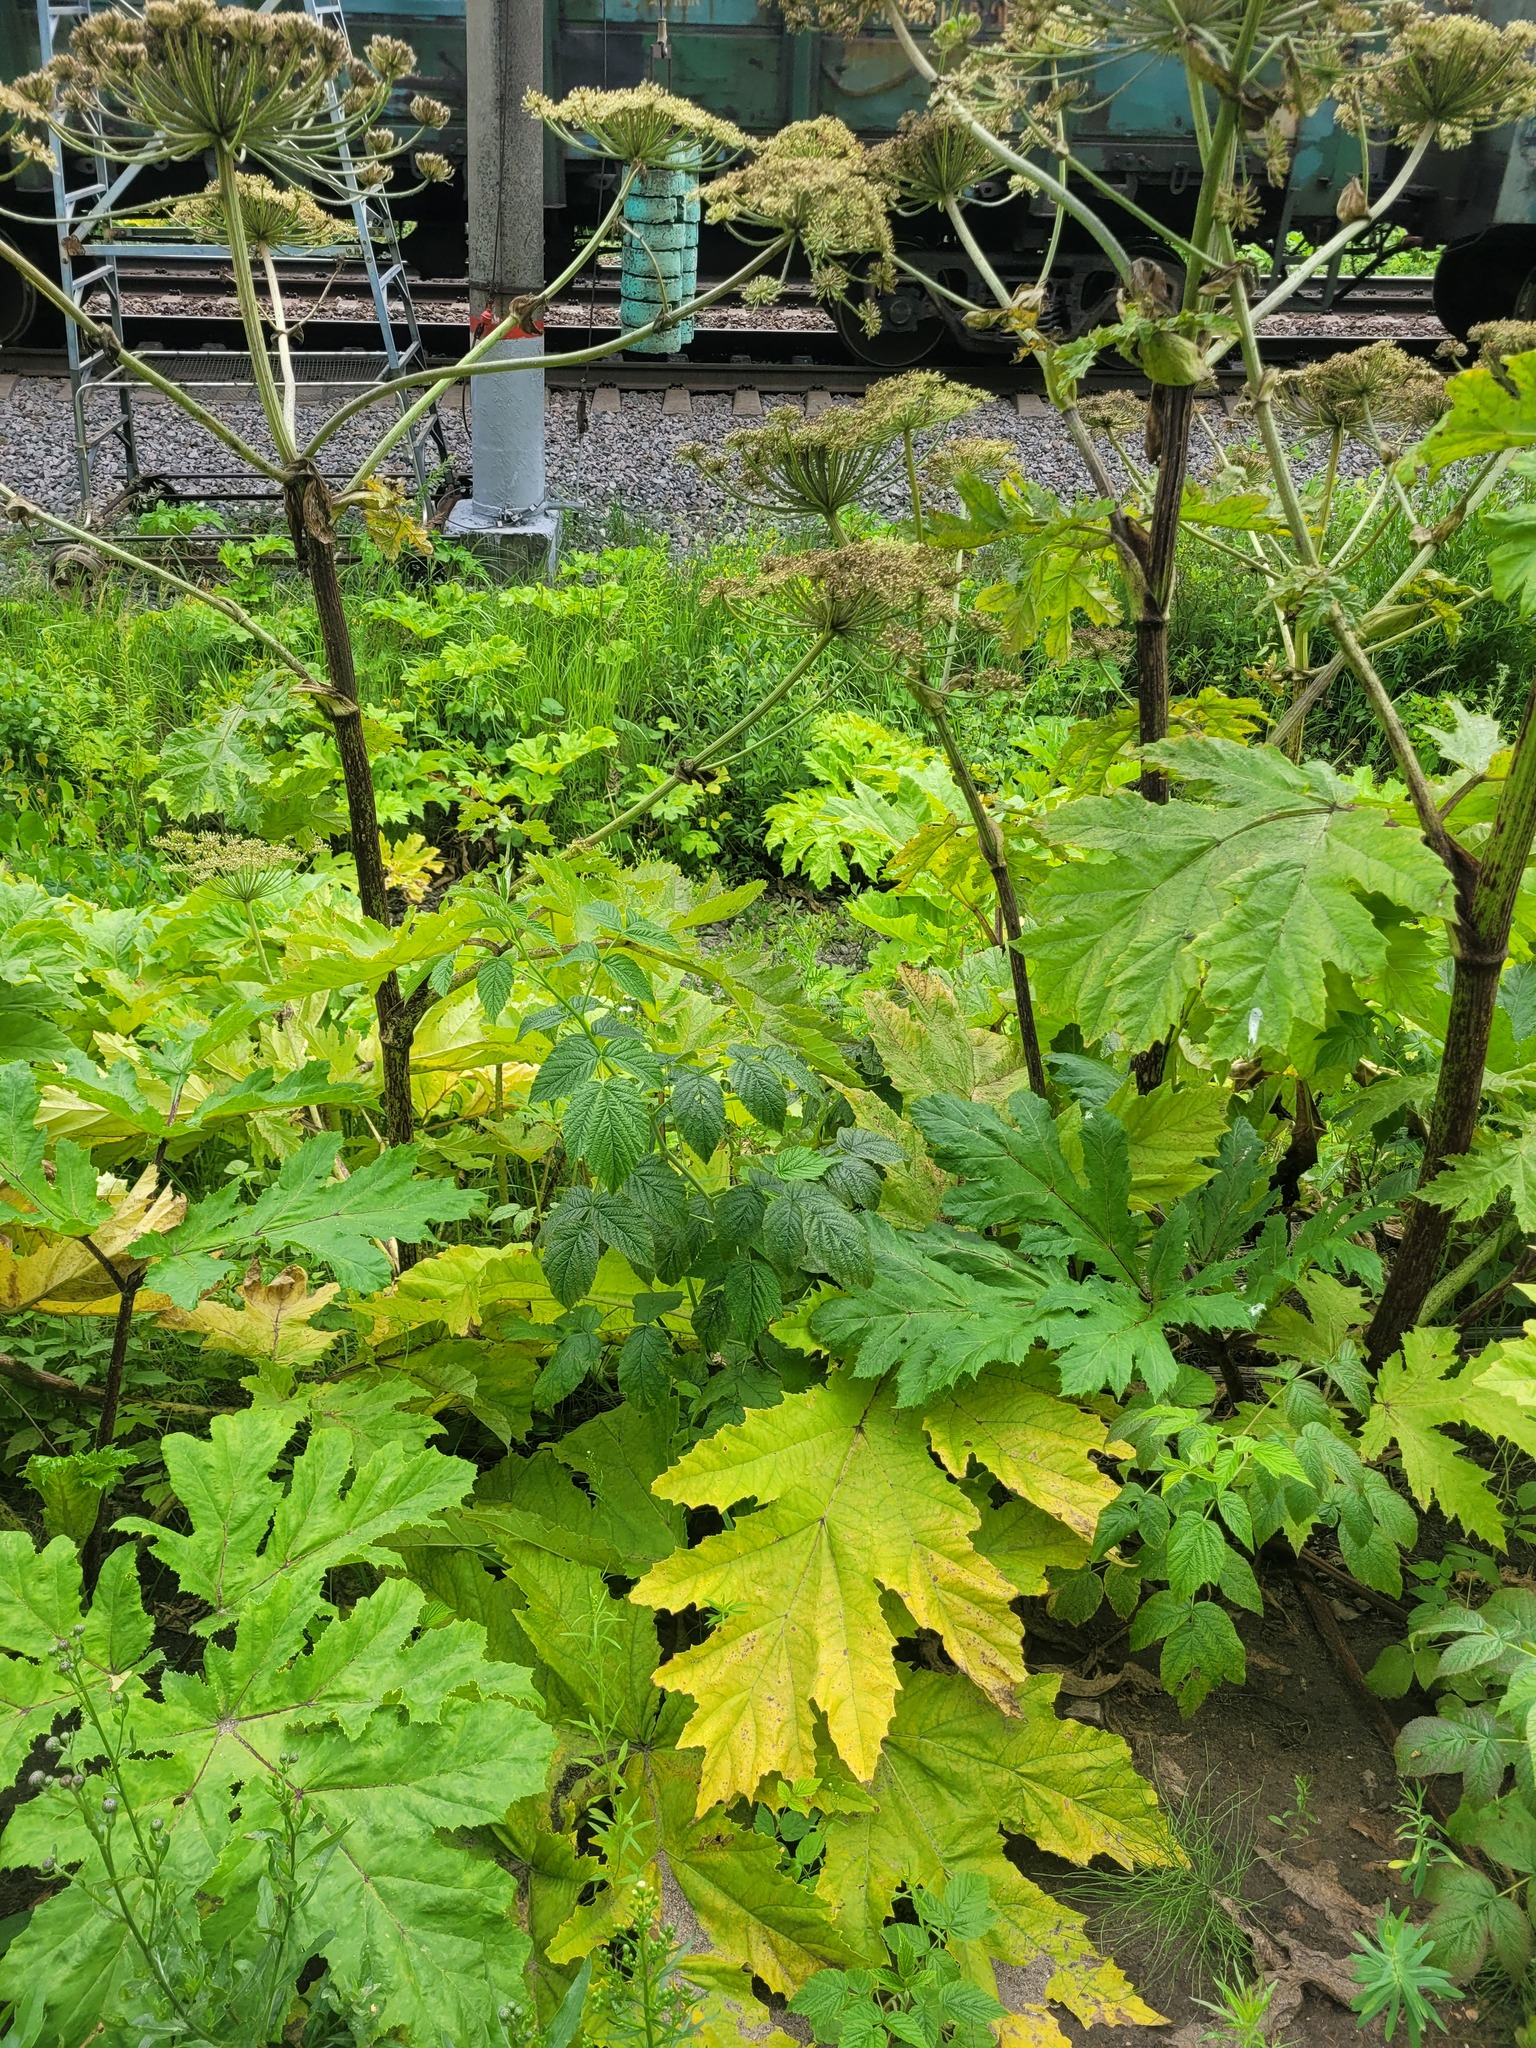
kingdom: Plantae
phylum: Tracheophyta
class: Magnoliopsida
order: Rosales
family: Rosaceae
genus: Rubus
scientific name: Rubus idaeus
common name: Raspberry
